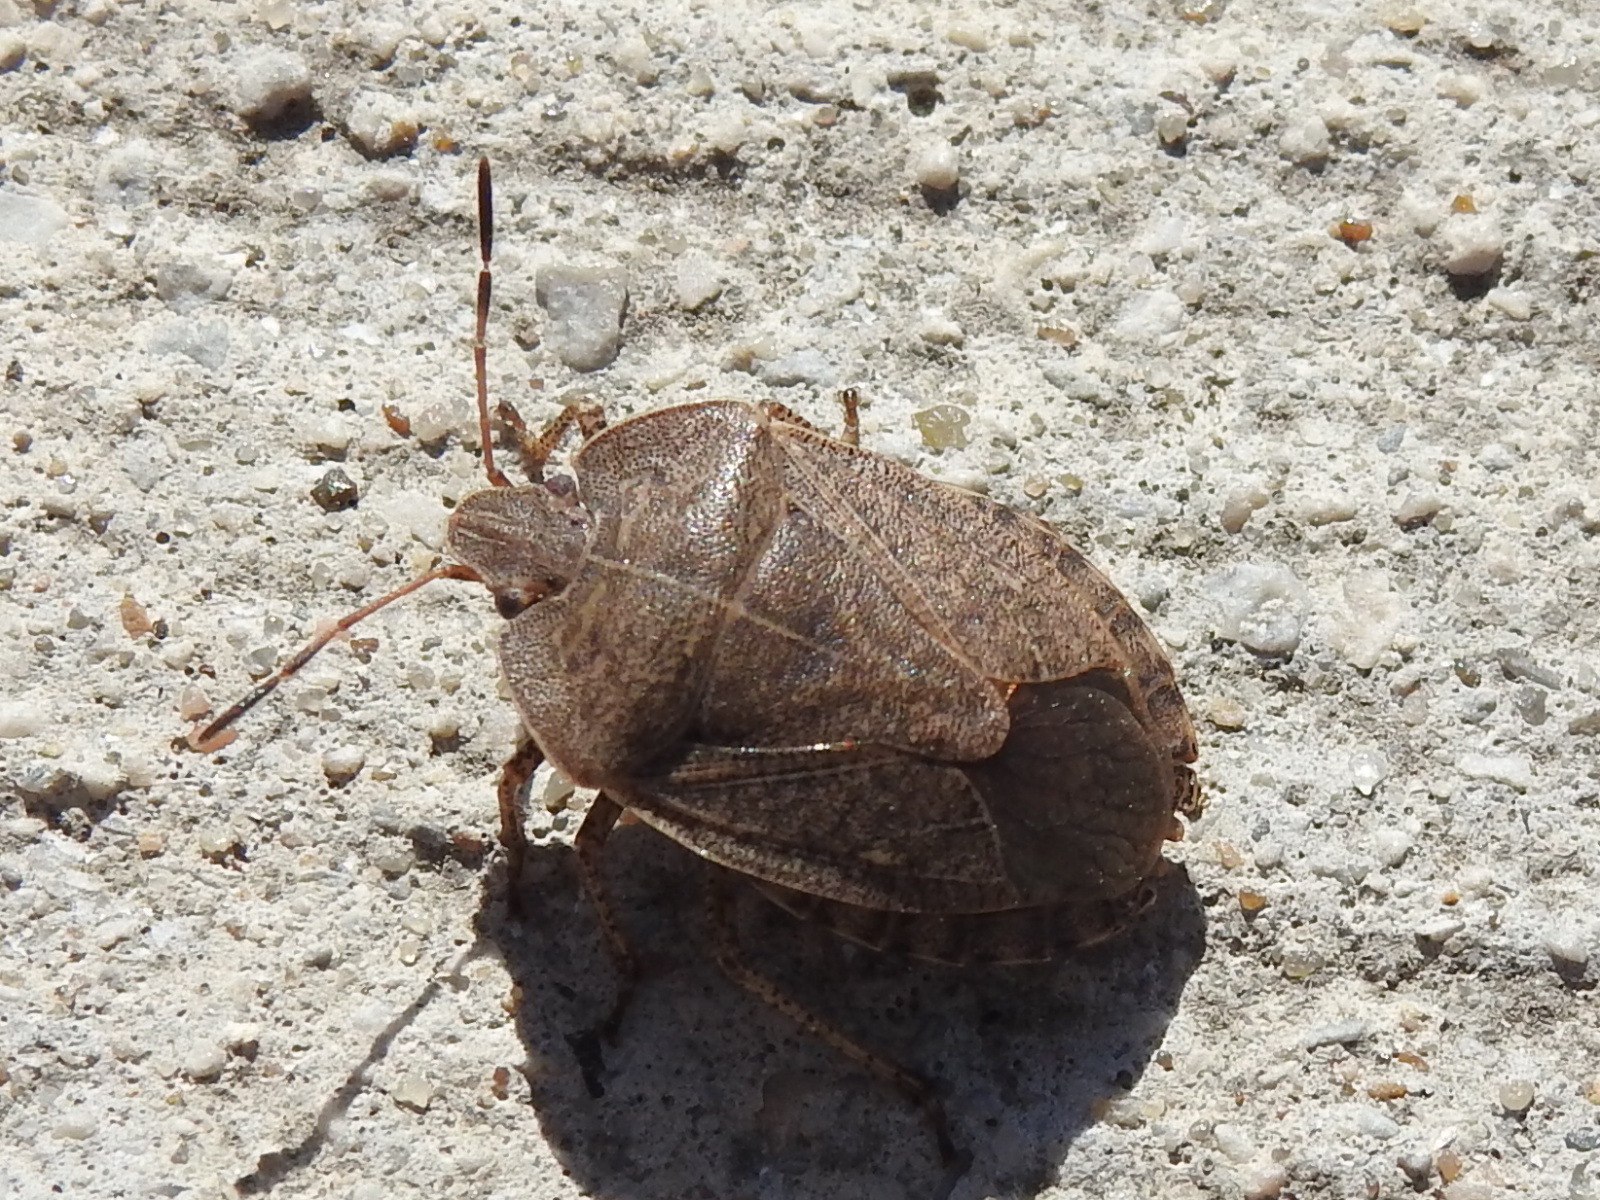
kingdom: Animalia
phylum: Arthropoda
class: Insecta
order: Hemiptera
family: Pentatomidae
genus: Menecles
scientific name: Menecles insertus
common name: Elf shoe stink bug
